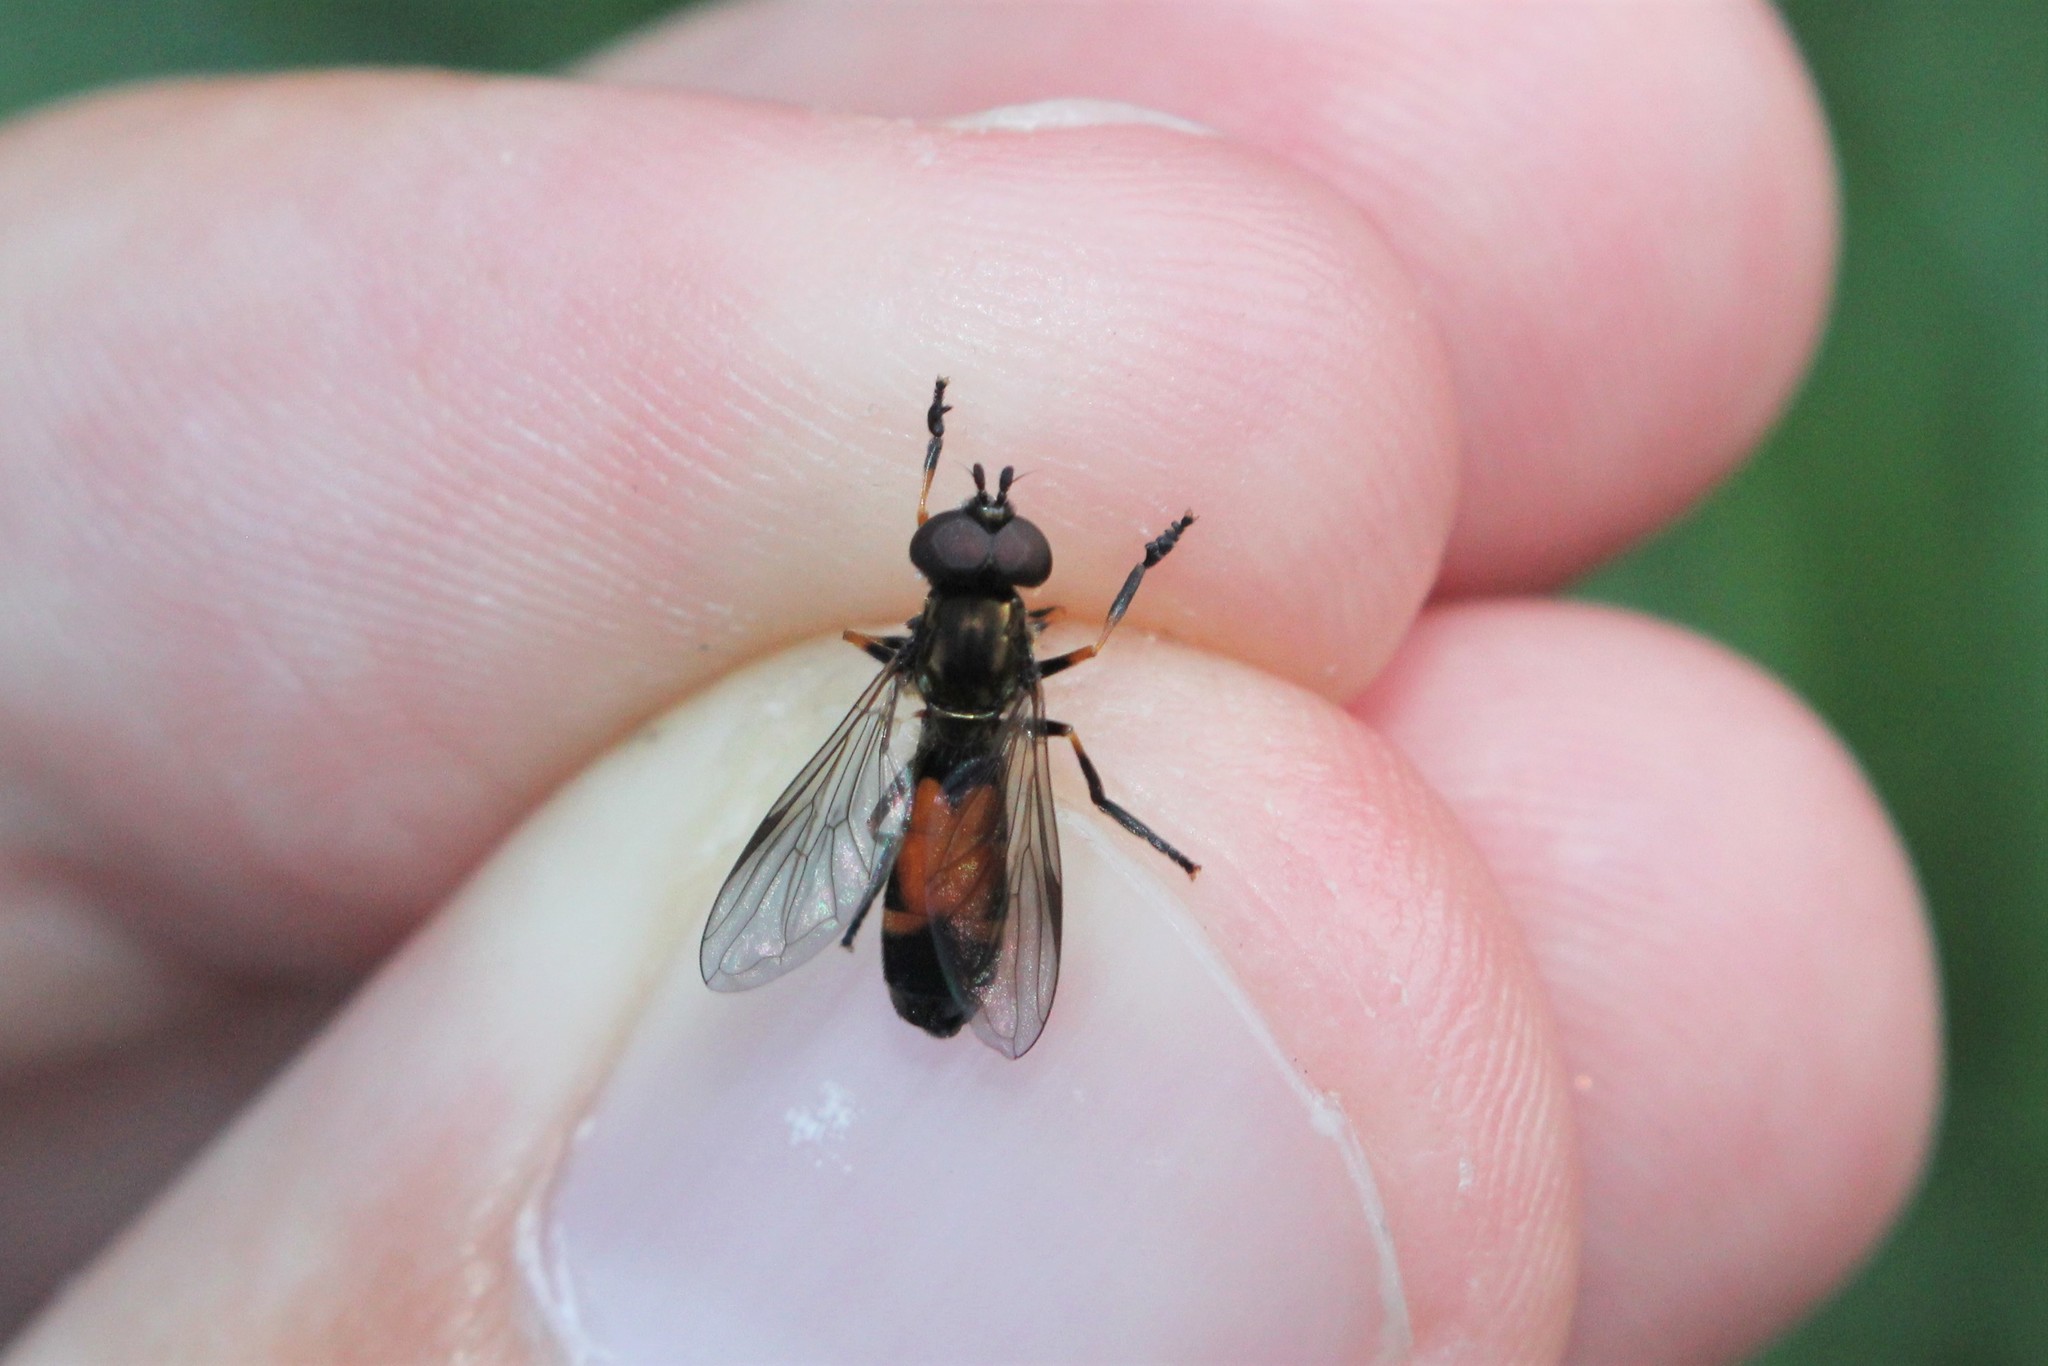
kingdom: Animalia
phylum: Arthropoda
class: Insecta
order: Diptera
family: Syrphidae
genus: Pyrophaena
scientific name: Pyrophaena granditarsa
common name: Hornhand sedgesitter
